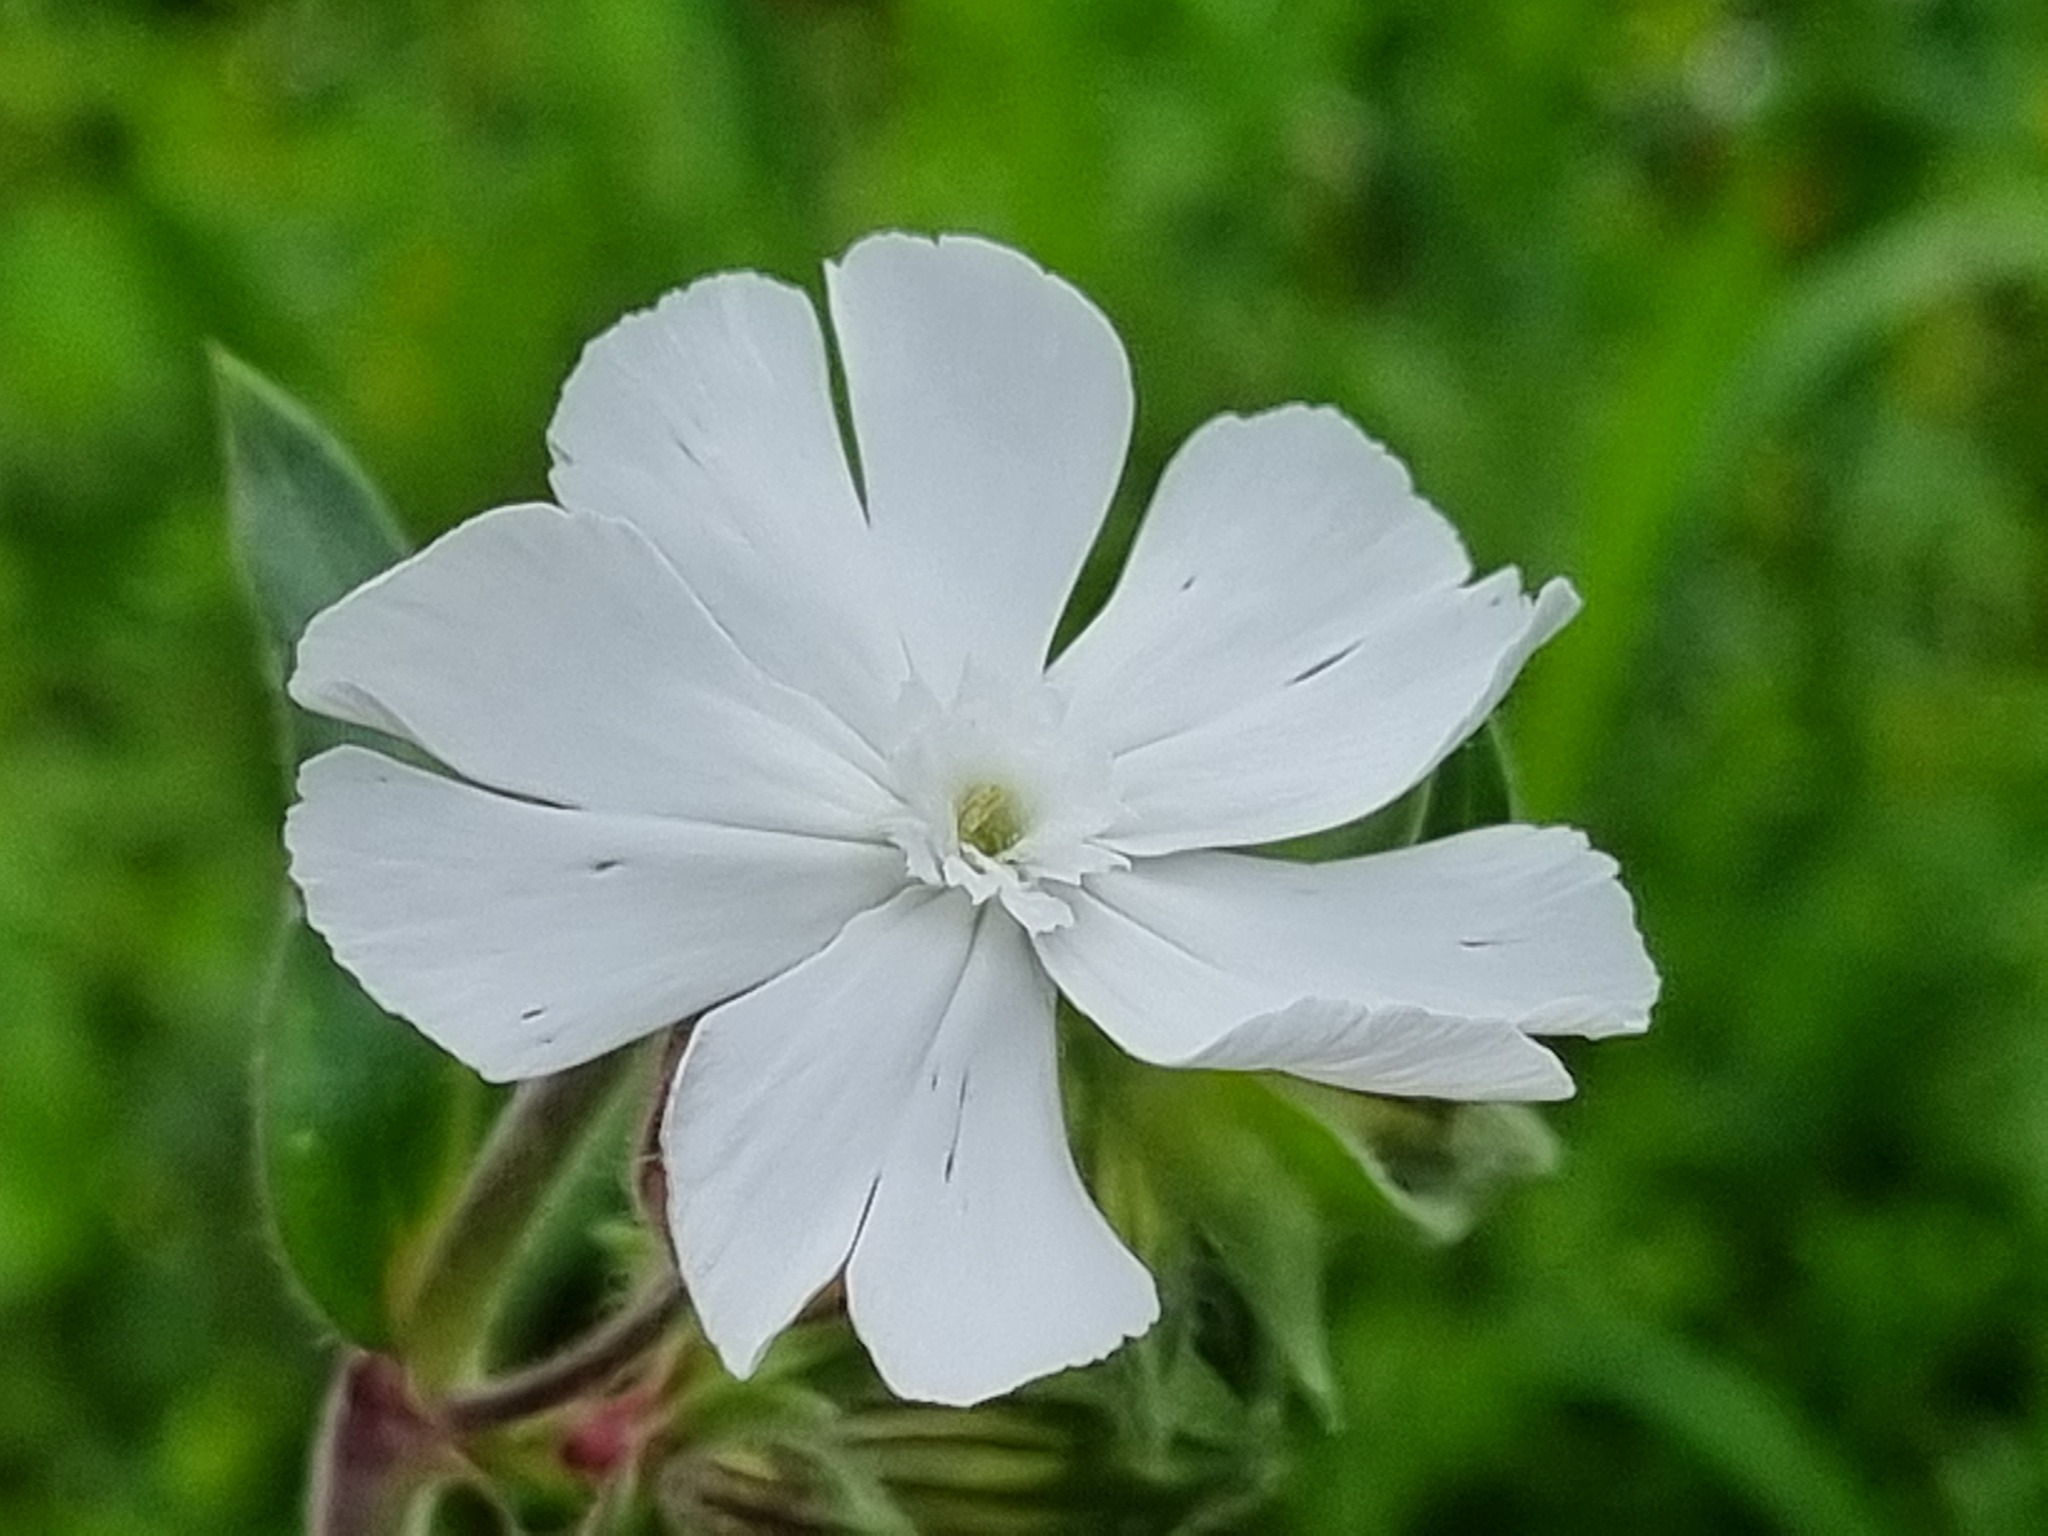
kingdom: Plantae
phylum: Tracheophyta
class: Magnoliopsida
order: Caryophyllales
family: Caryophyllaceae
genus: Silene
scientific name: Silene latifolia
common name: White campion
